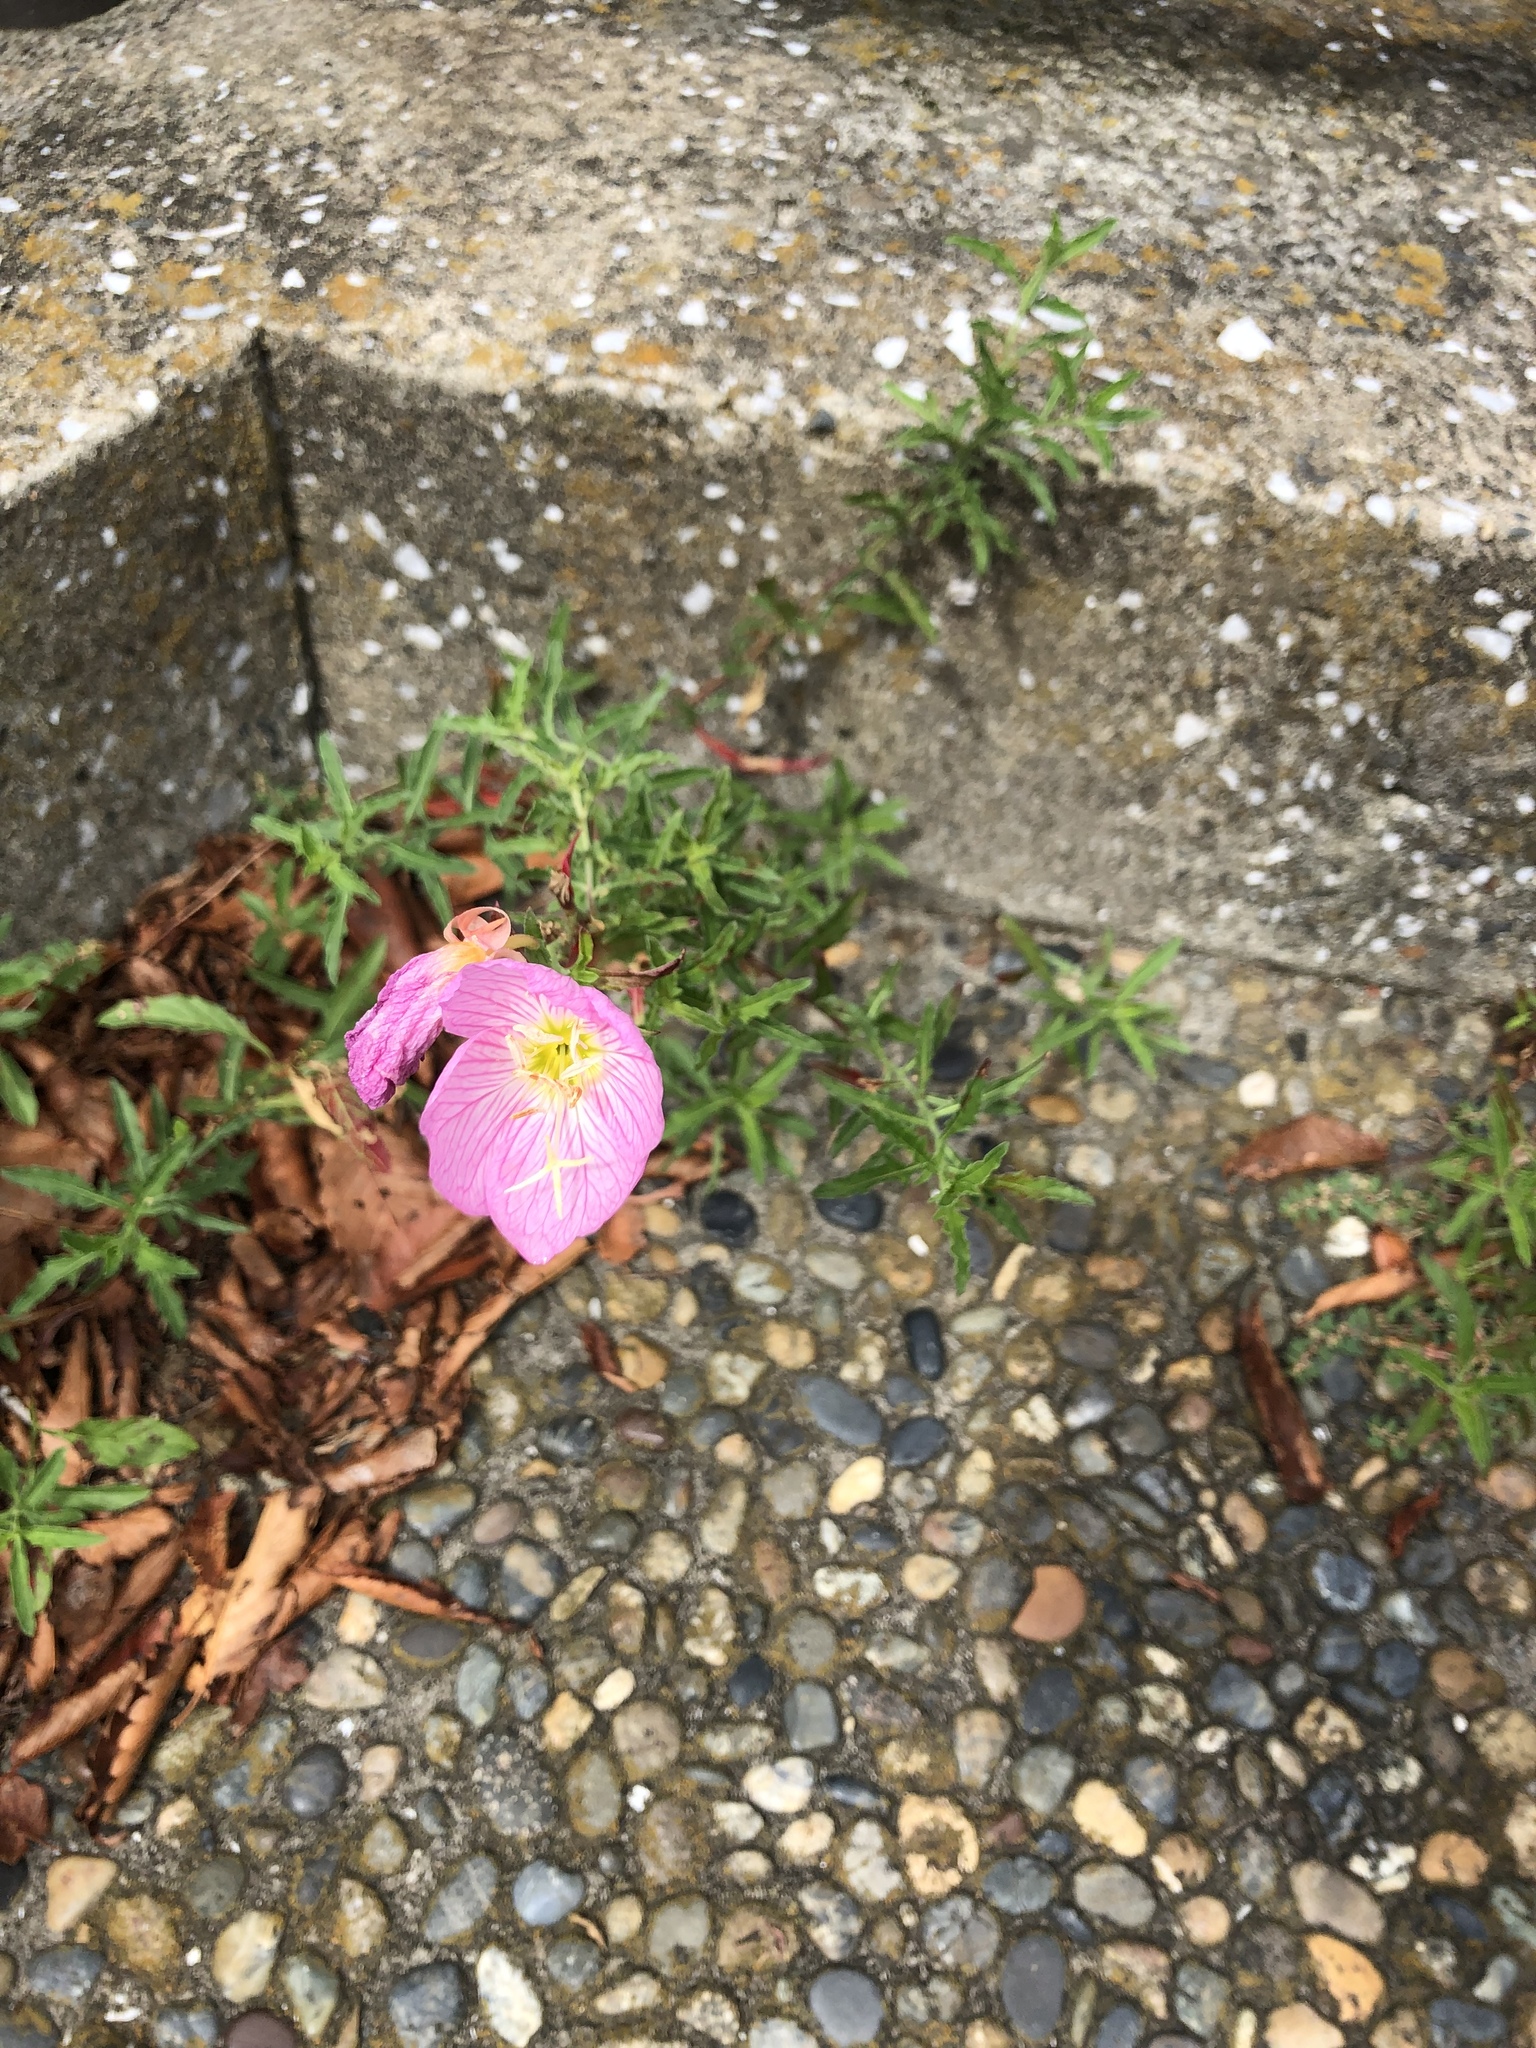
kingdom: Plantae
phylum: Tracheophyta
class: Magnoliopsida
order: Myrtales
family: Onagraceae
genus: Oenothera
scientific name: Oenothera speciosa
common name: White evening-primrose
